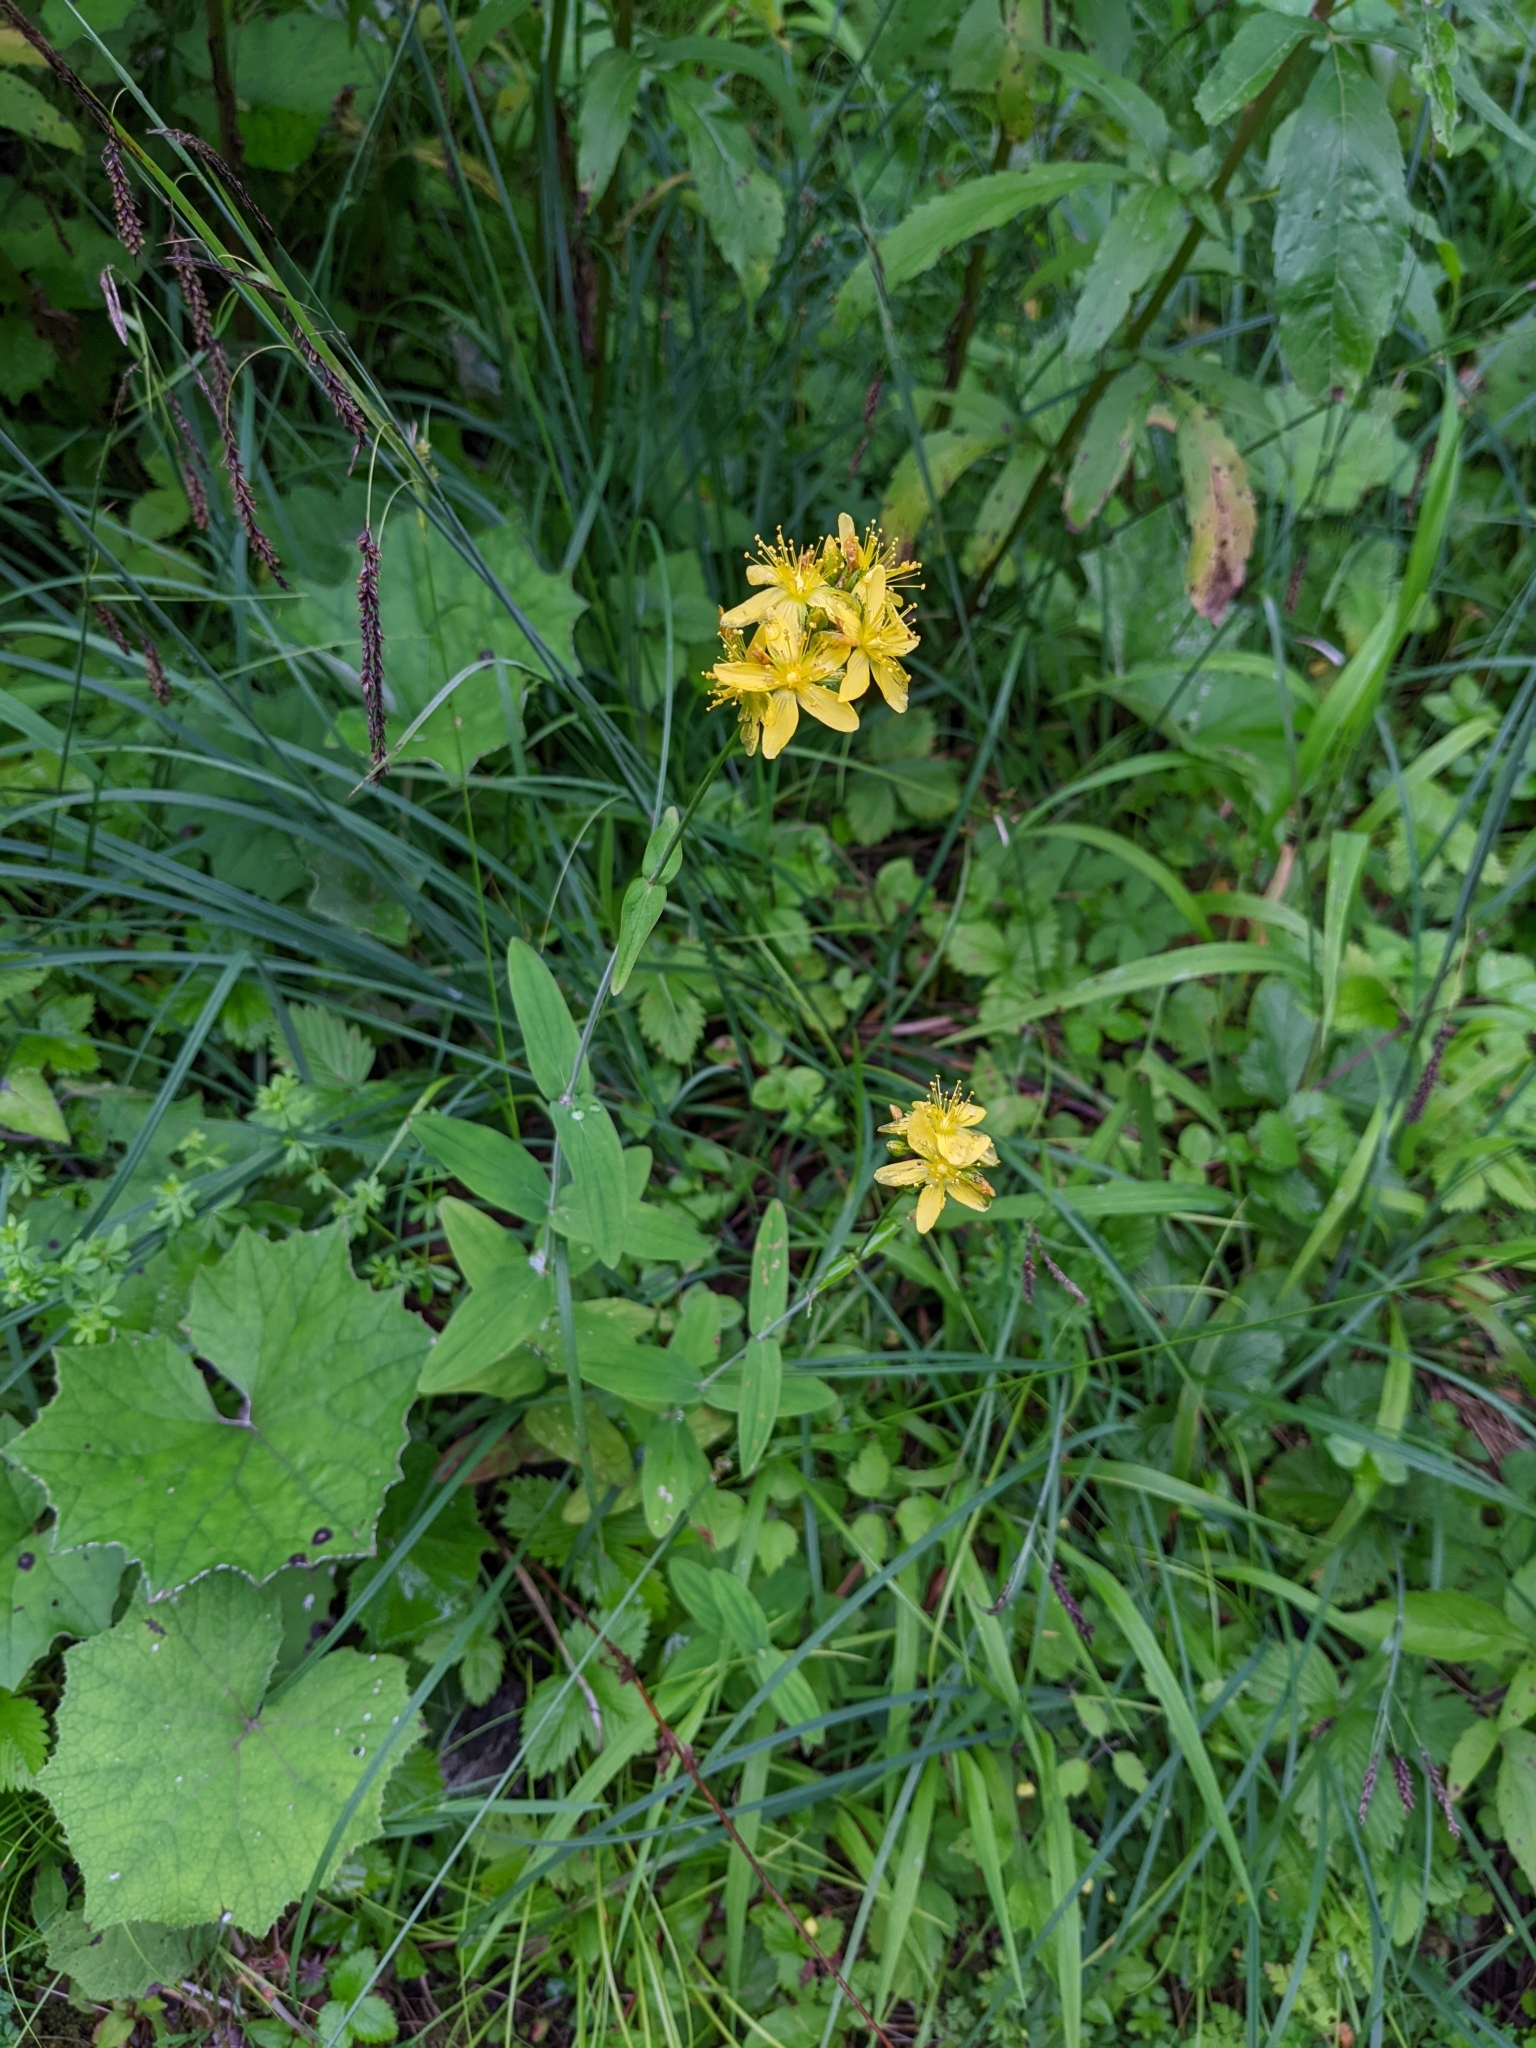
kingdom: Plantae
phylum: Tracheophyta
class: Magnoliopsida
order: Malpighiales
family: Hypericaceae
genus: Hypericum
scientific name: Hypericum montanum
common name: Pale st. john's-wort
